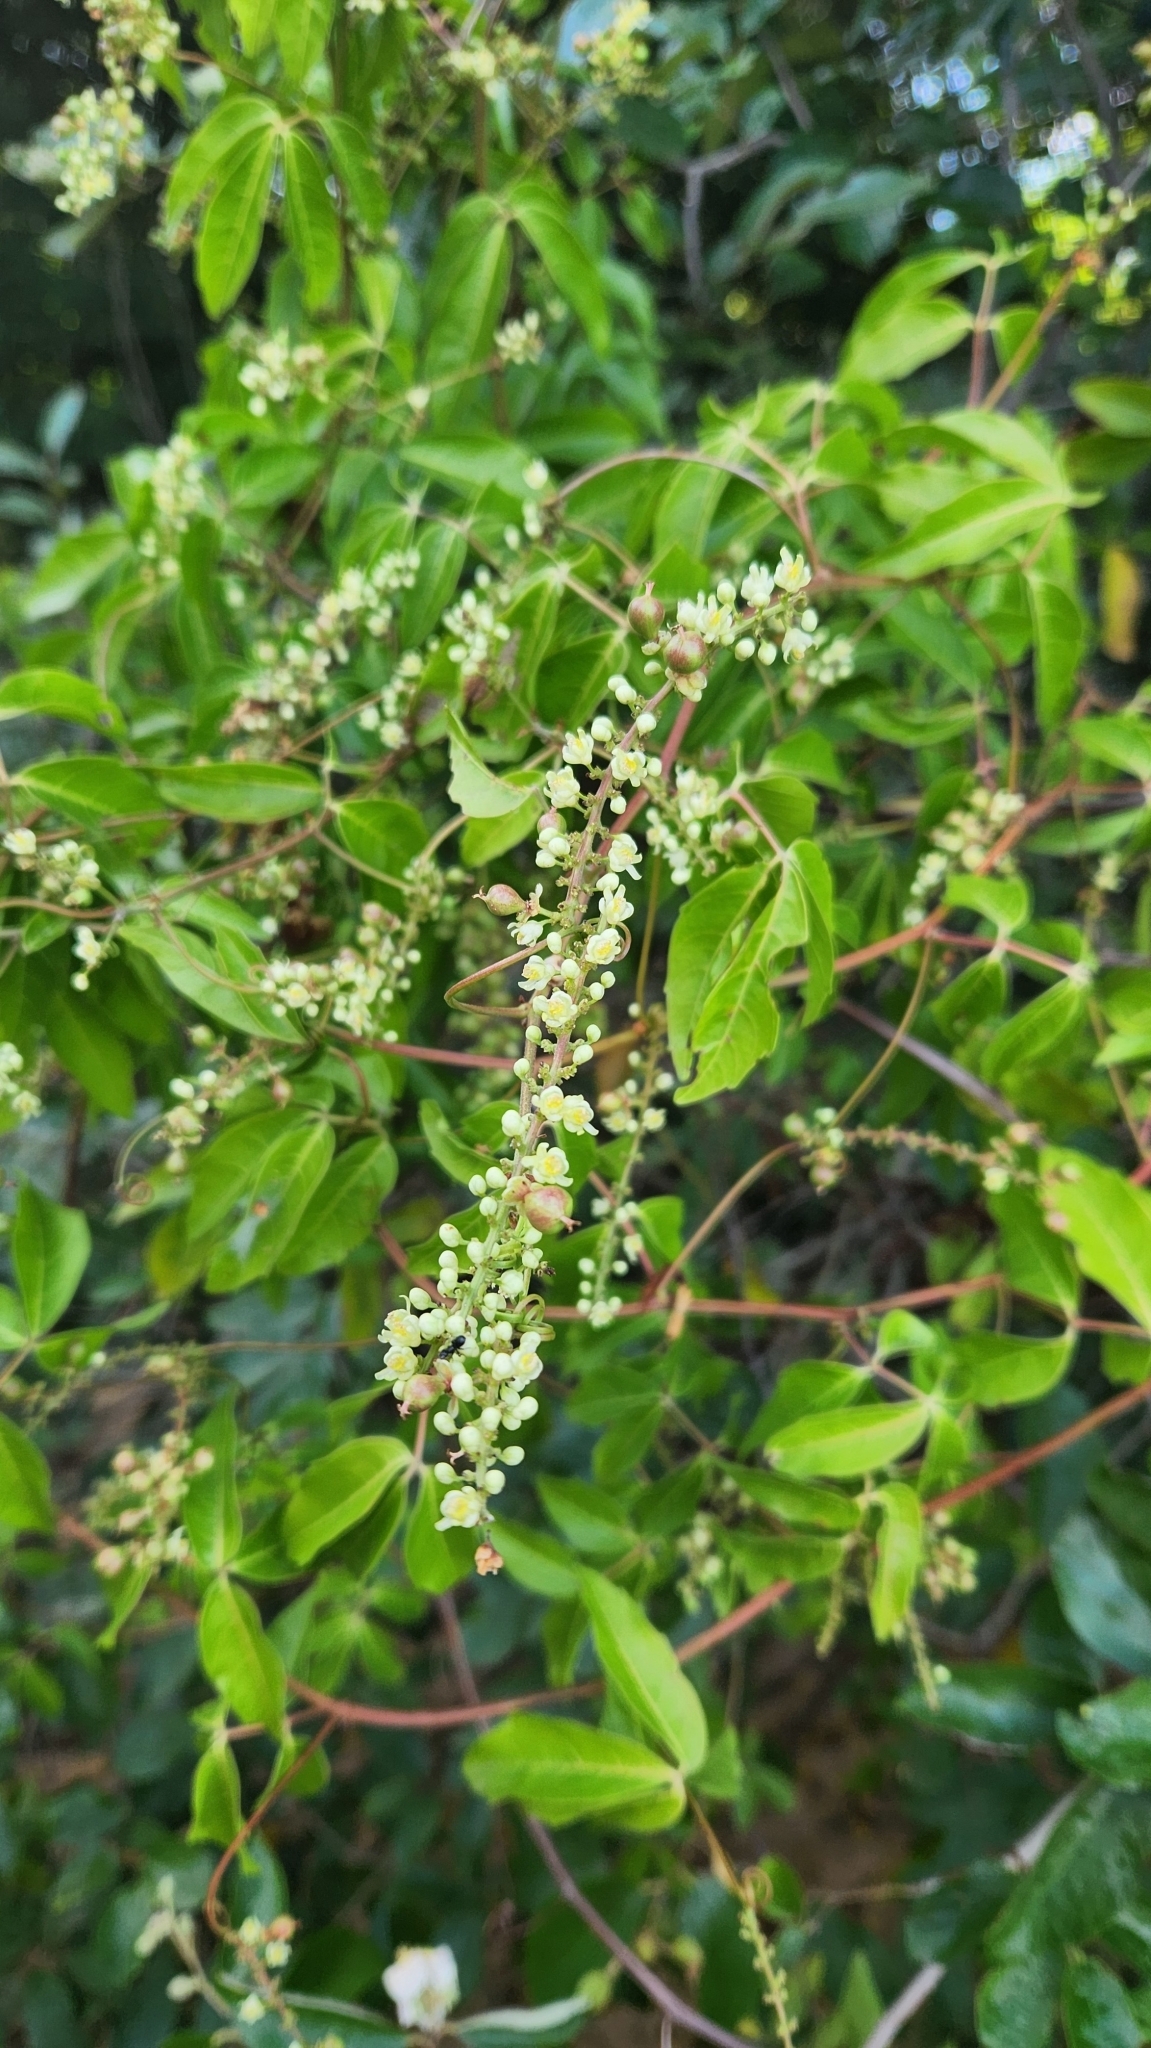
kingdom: Plantae
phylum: Tracheophyta
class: Magnoliopsida
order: Sapindales
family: Sapindaceae
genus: Paullinia
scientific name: Paullinia elegans
